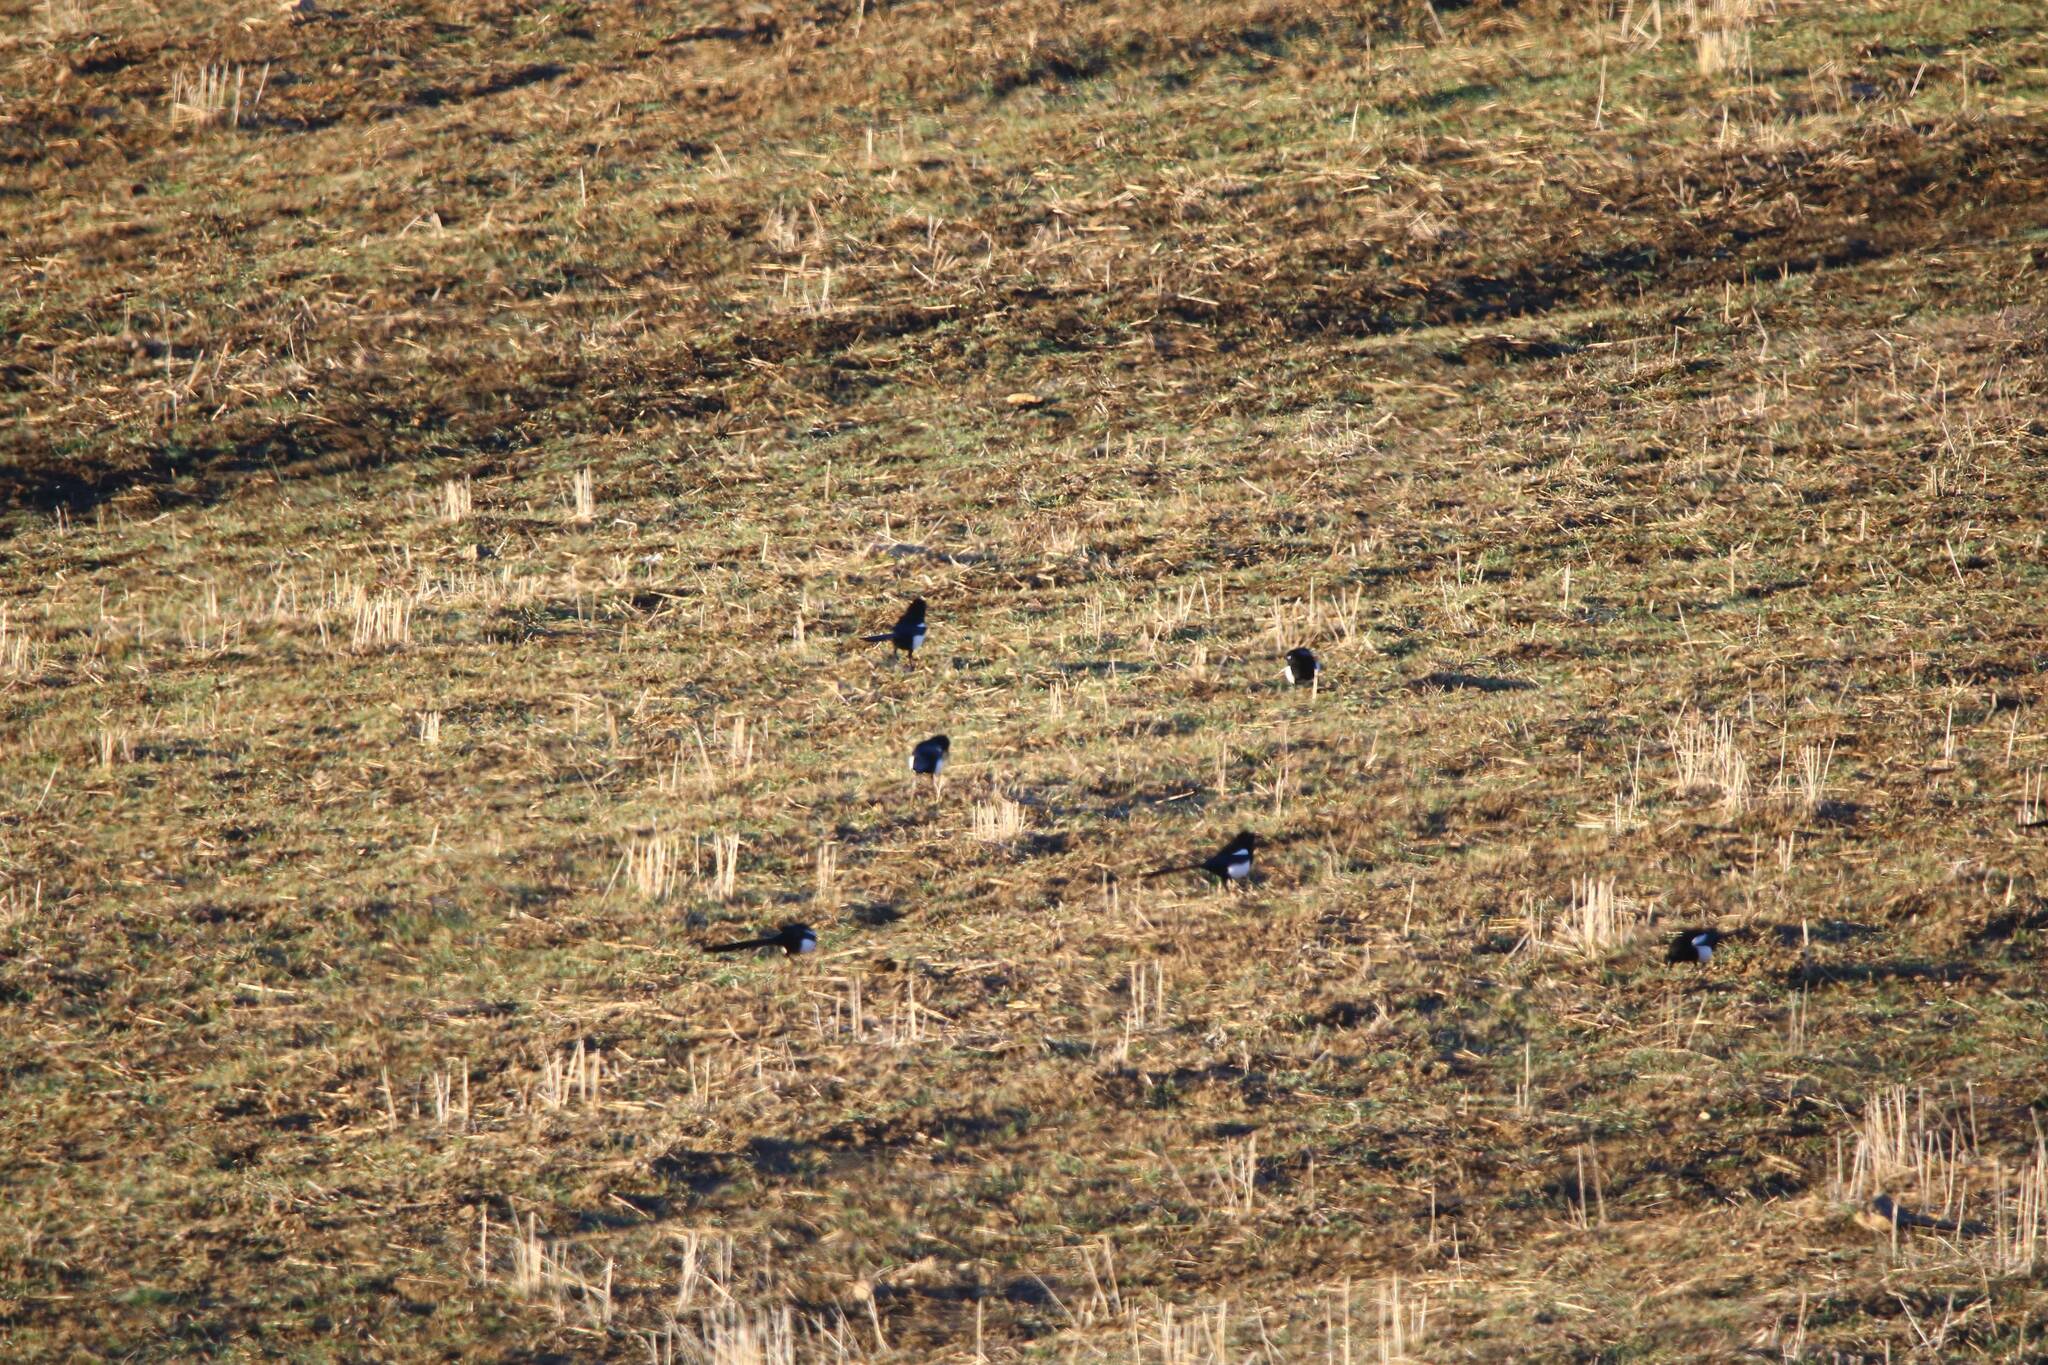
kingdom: Animalia
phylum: Chordata
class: Aves
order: Passeriformes
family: Corvidae
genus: Pica
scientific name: Pica mauritanica
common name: Maghreb magpie
